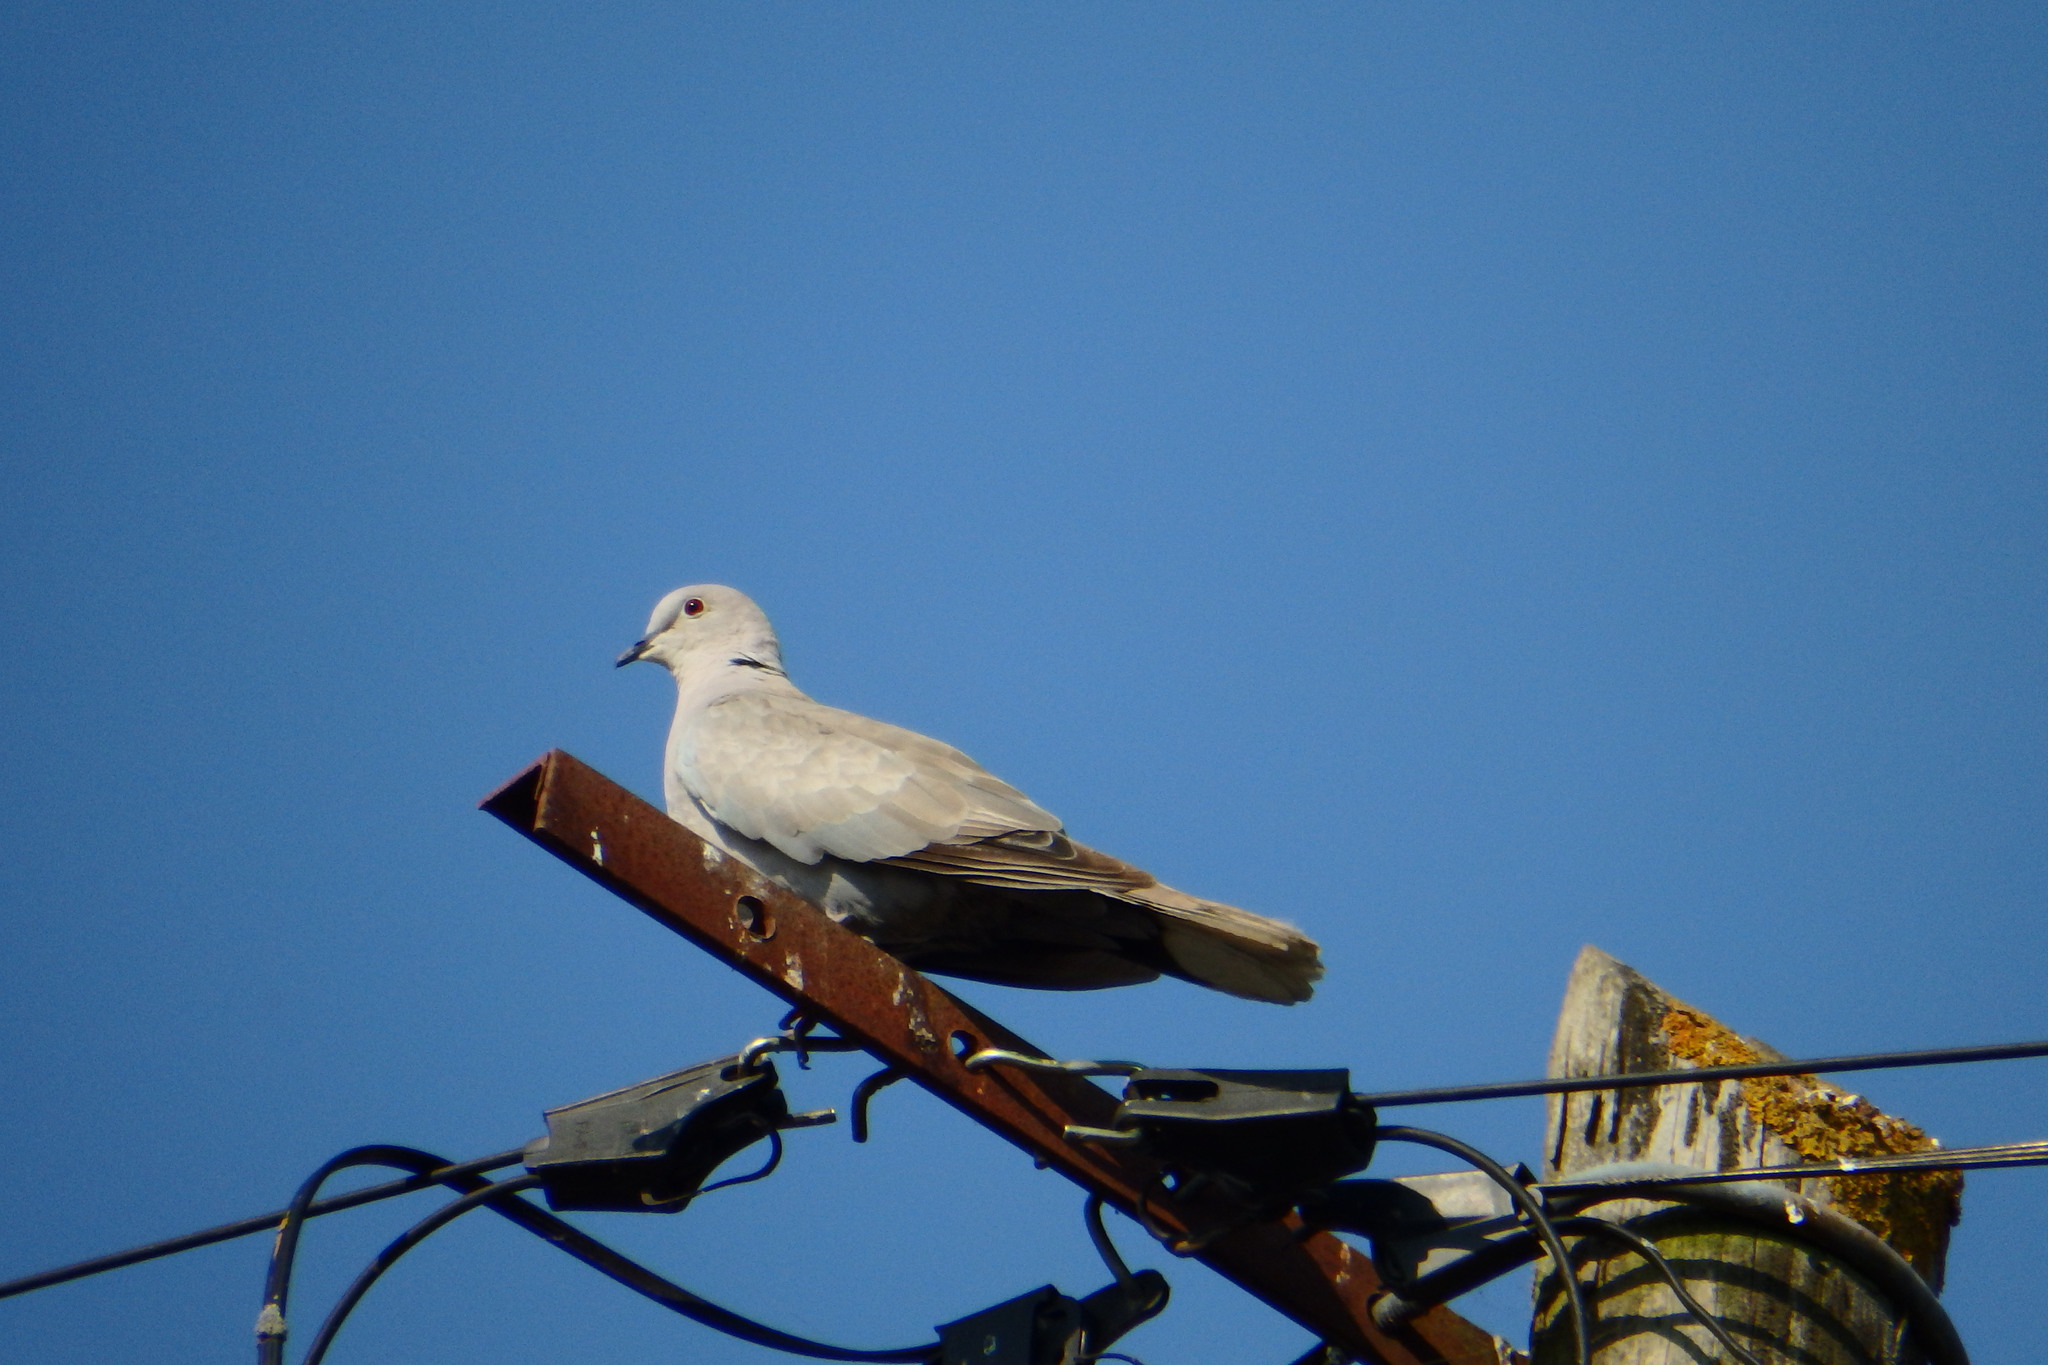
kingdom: Animalia
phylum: Chordata
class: Aves
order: Columbiformes
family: Columbidae
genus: Streptopelia
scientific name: Streptopelia decaocto
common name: Eurasian collared dove
